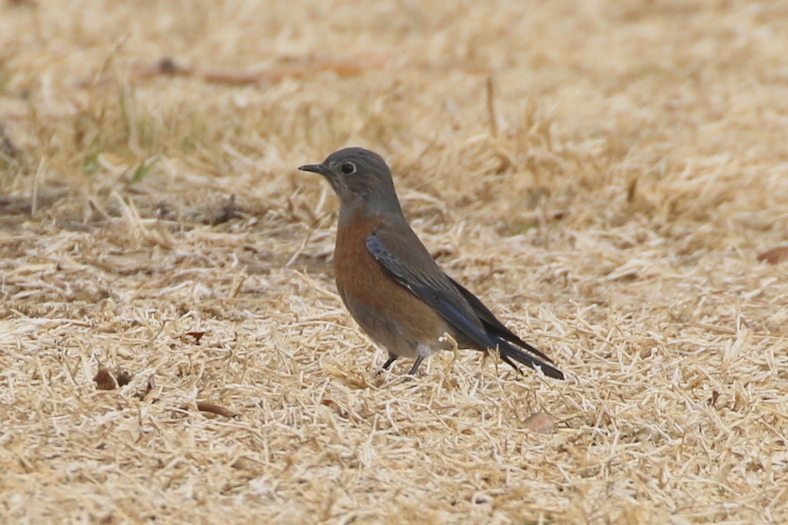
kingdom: Animalia
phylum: Chordata
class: Aves
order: Passeriformes
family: Turdidae
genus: Sialia
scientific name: Sialia mexicana
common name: Western bluebird
